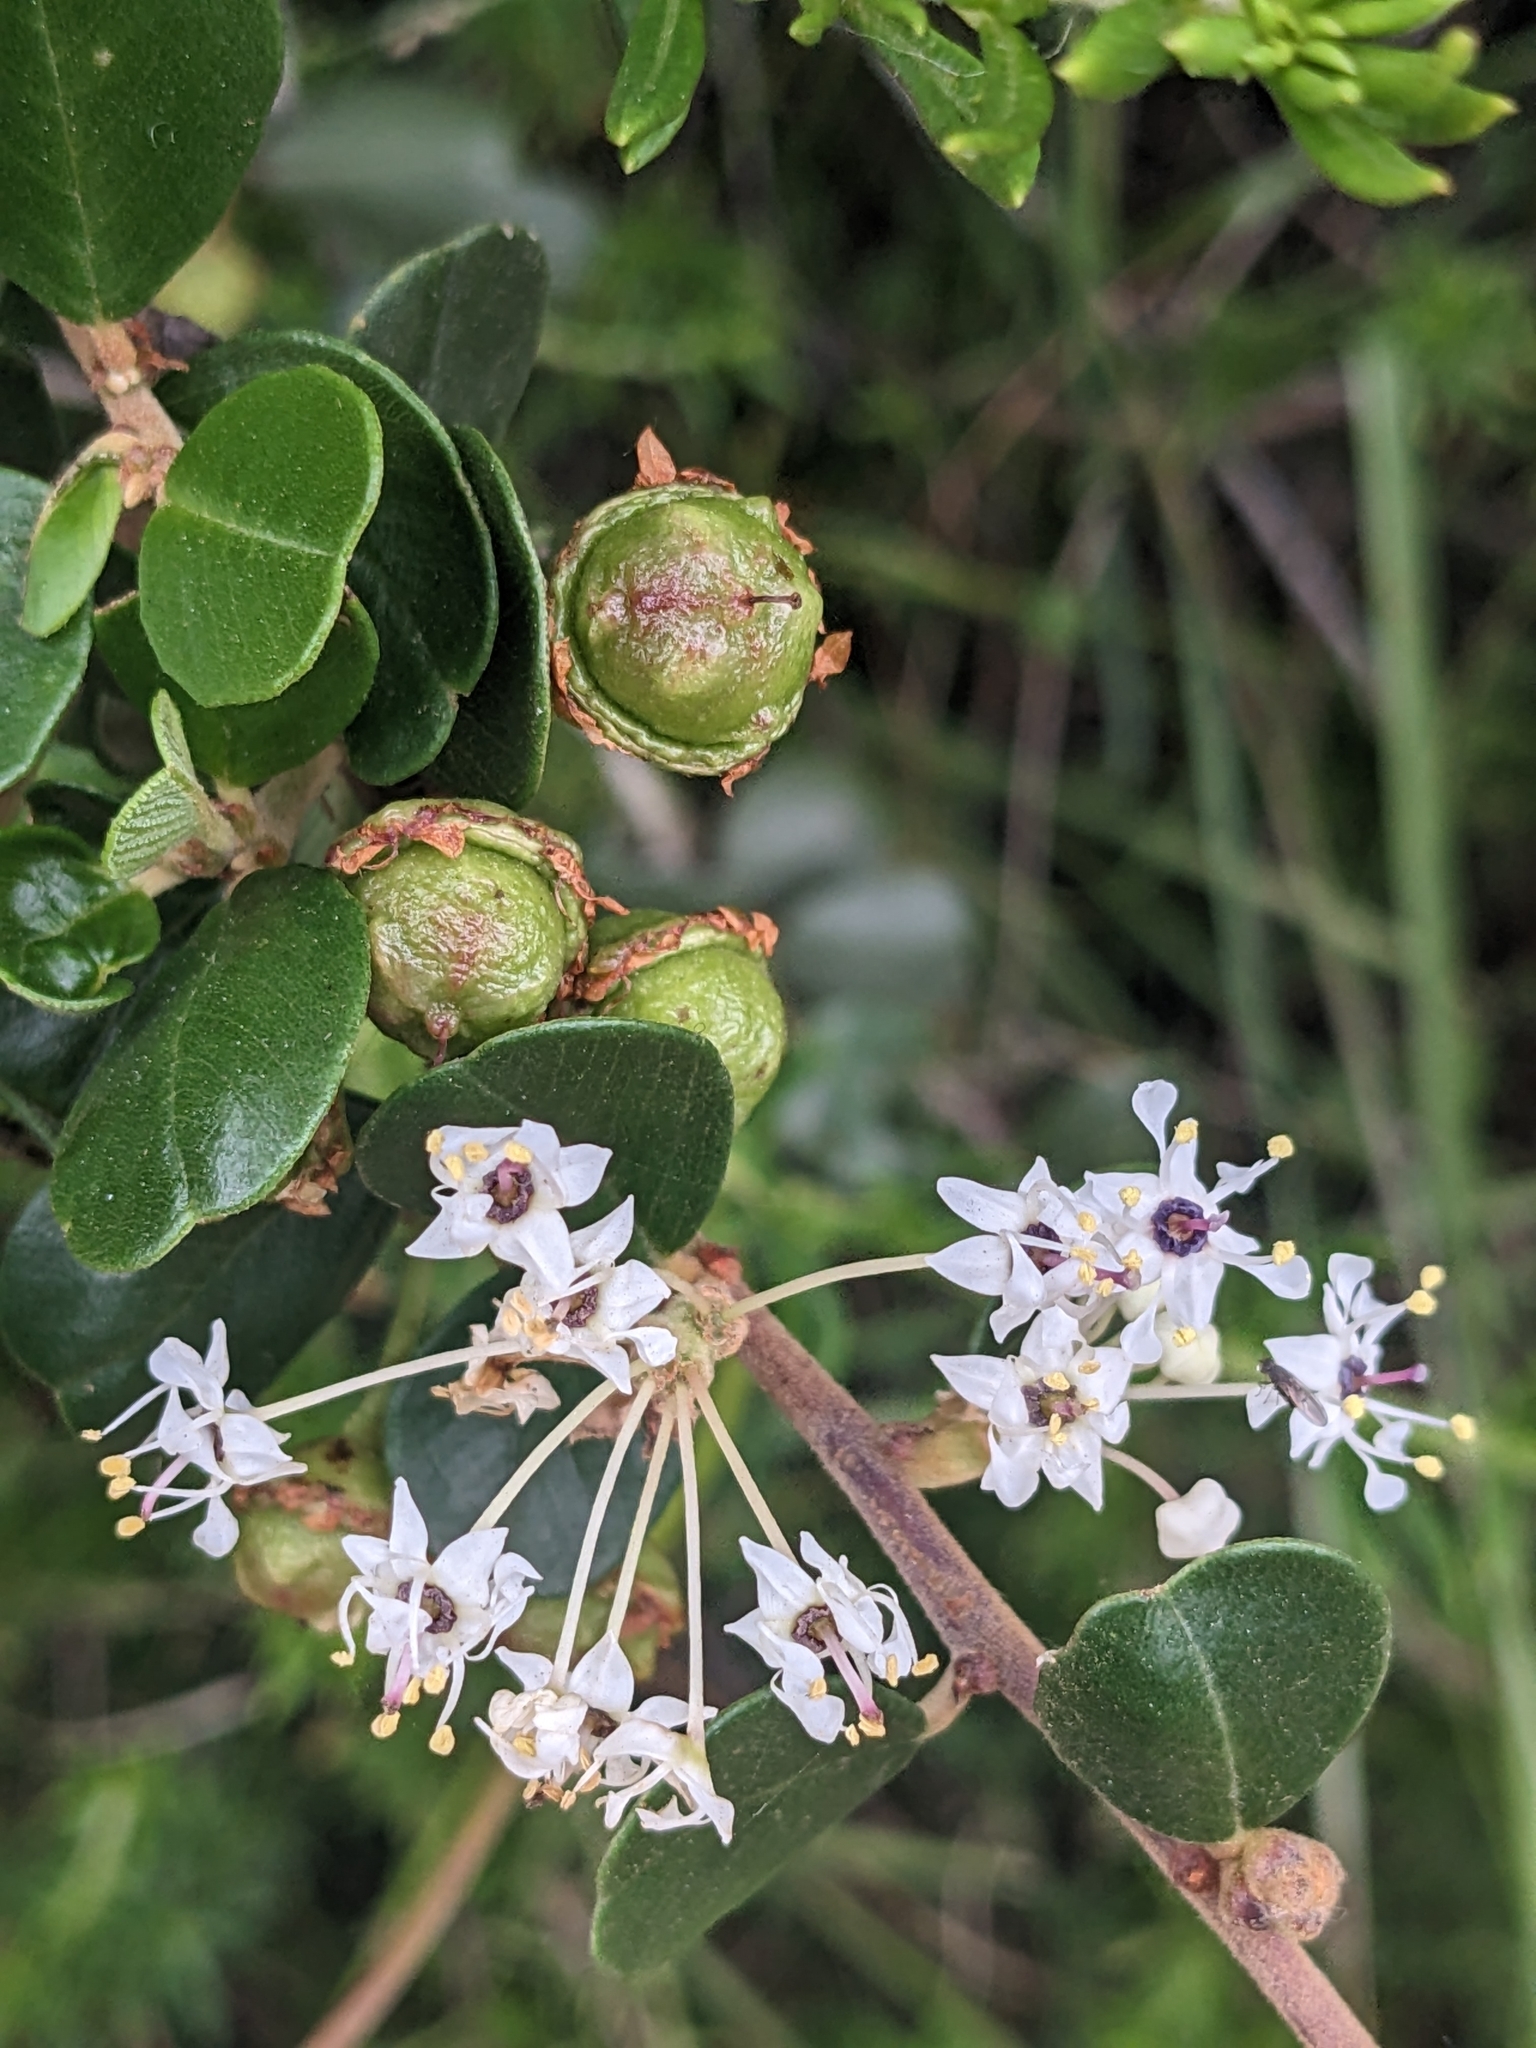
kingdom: Plantae
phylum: Tracheophyta
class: Magnoliopsida
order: Rosales
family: Rhamnaceae
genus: Ceanothus
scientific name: Ceanothus verrucosus
